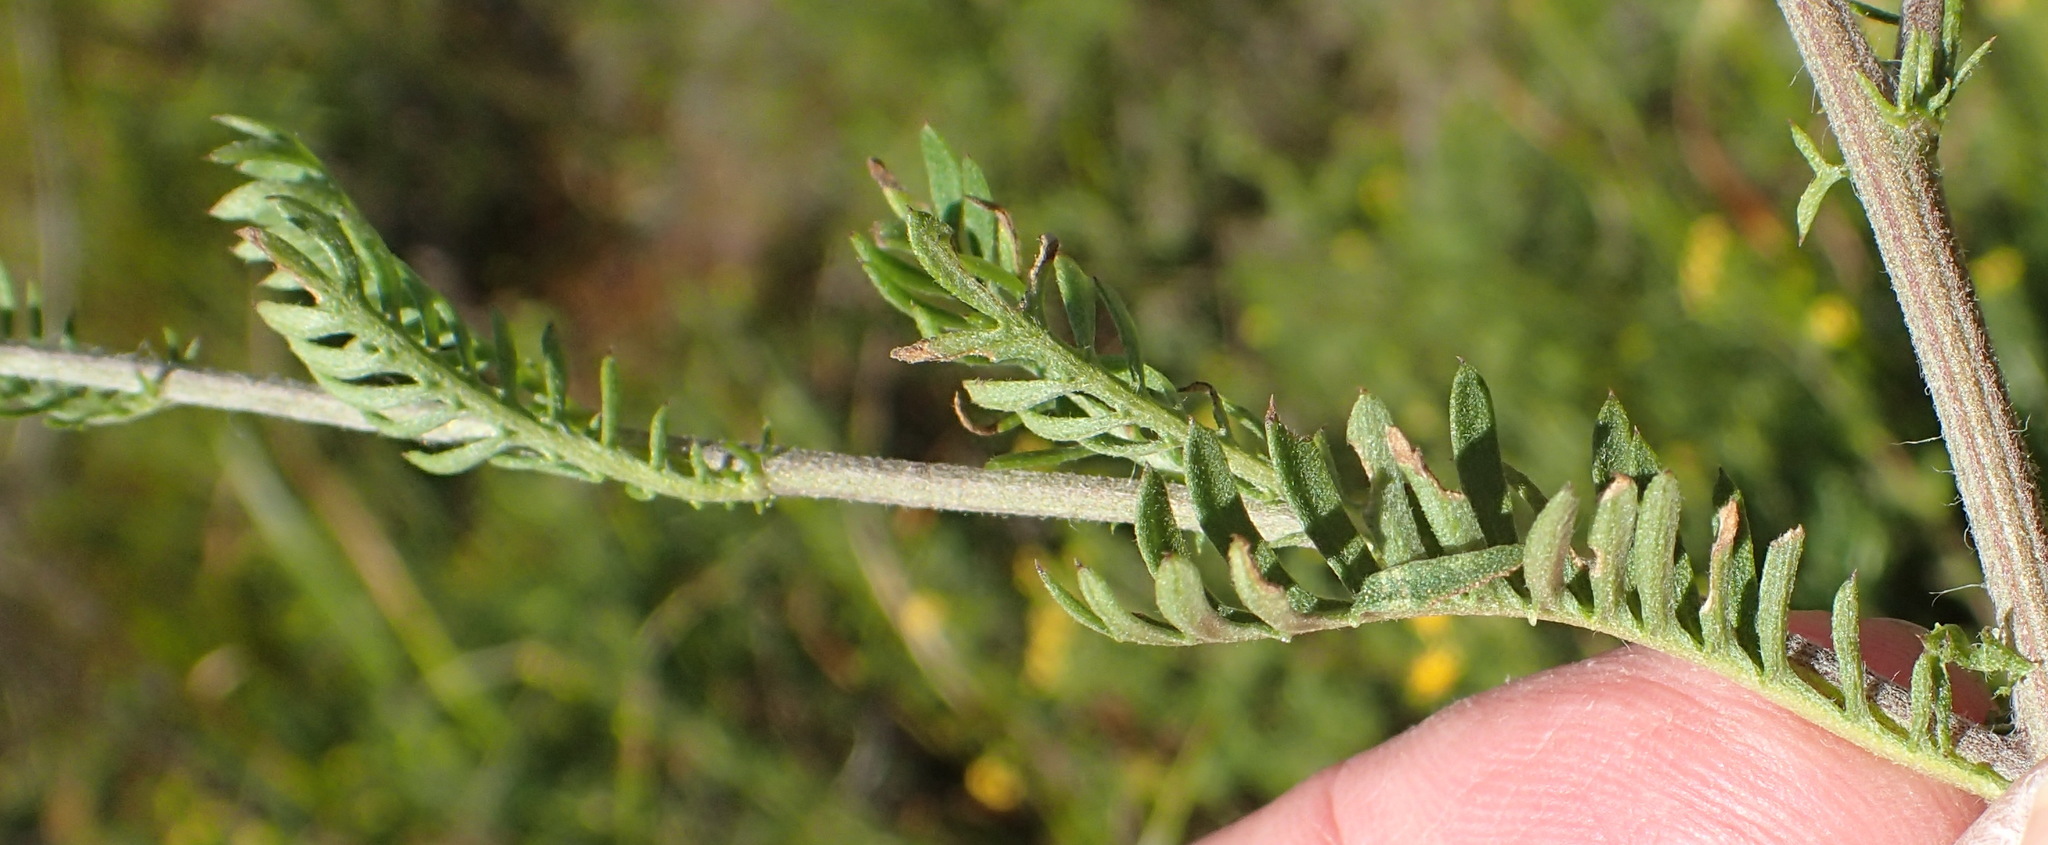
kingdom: Plantae
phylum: Tracheophyta
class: Magnoliopsida
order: Asterales
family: Asteraceae
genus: Hippia
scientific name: Hippia frutescens
